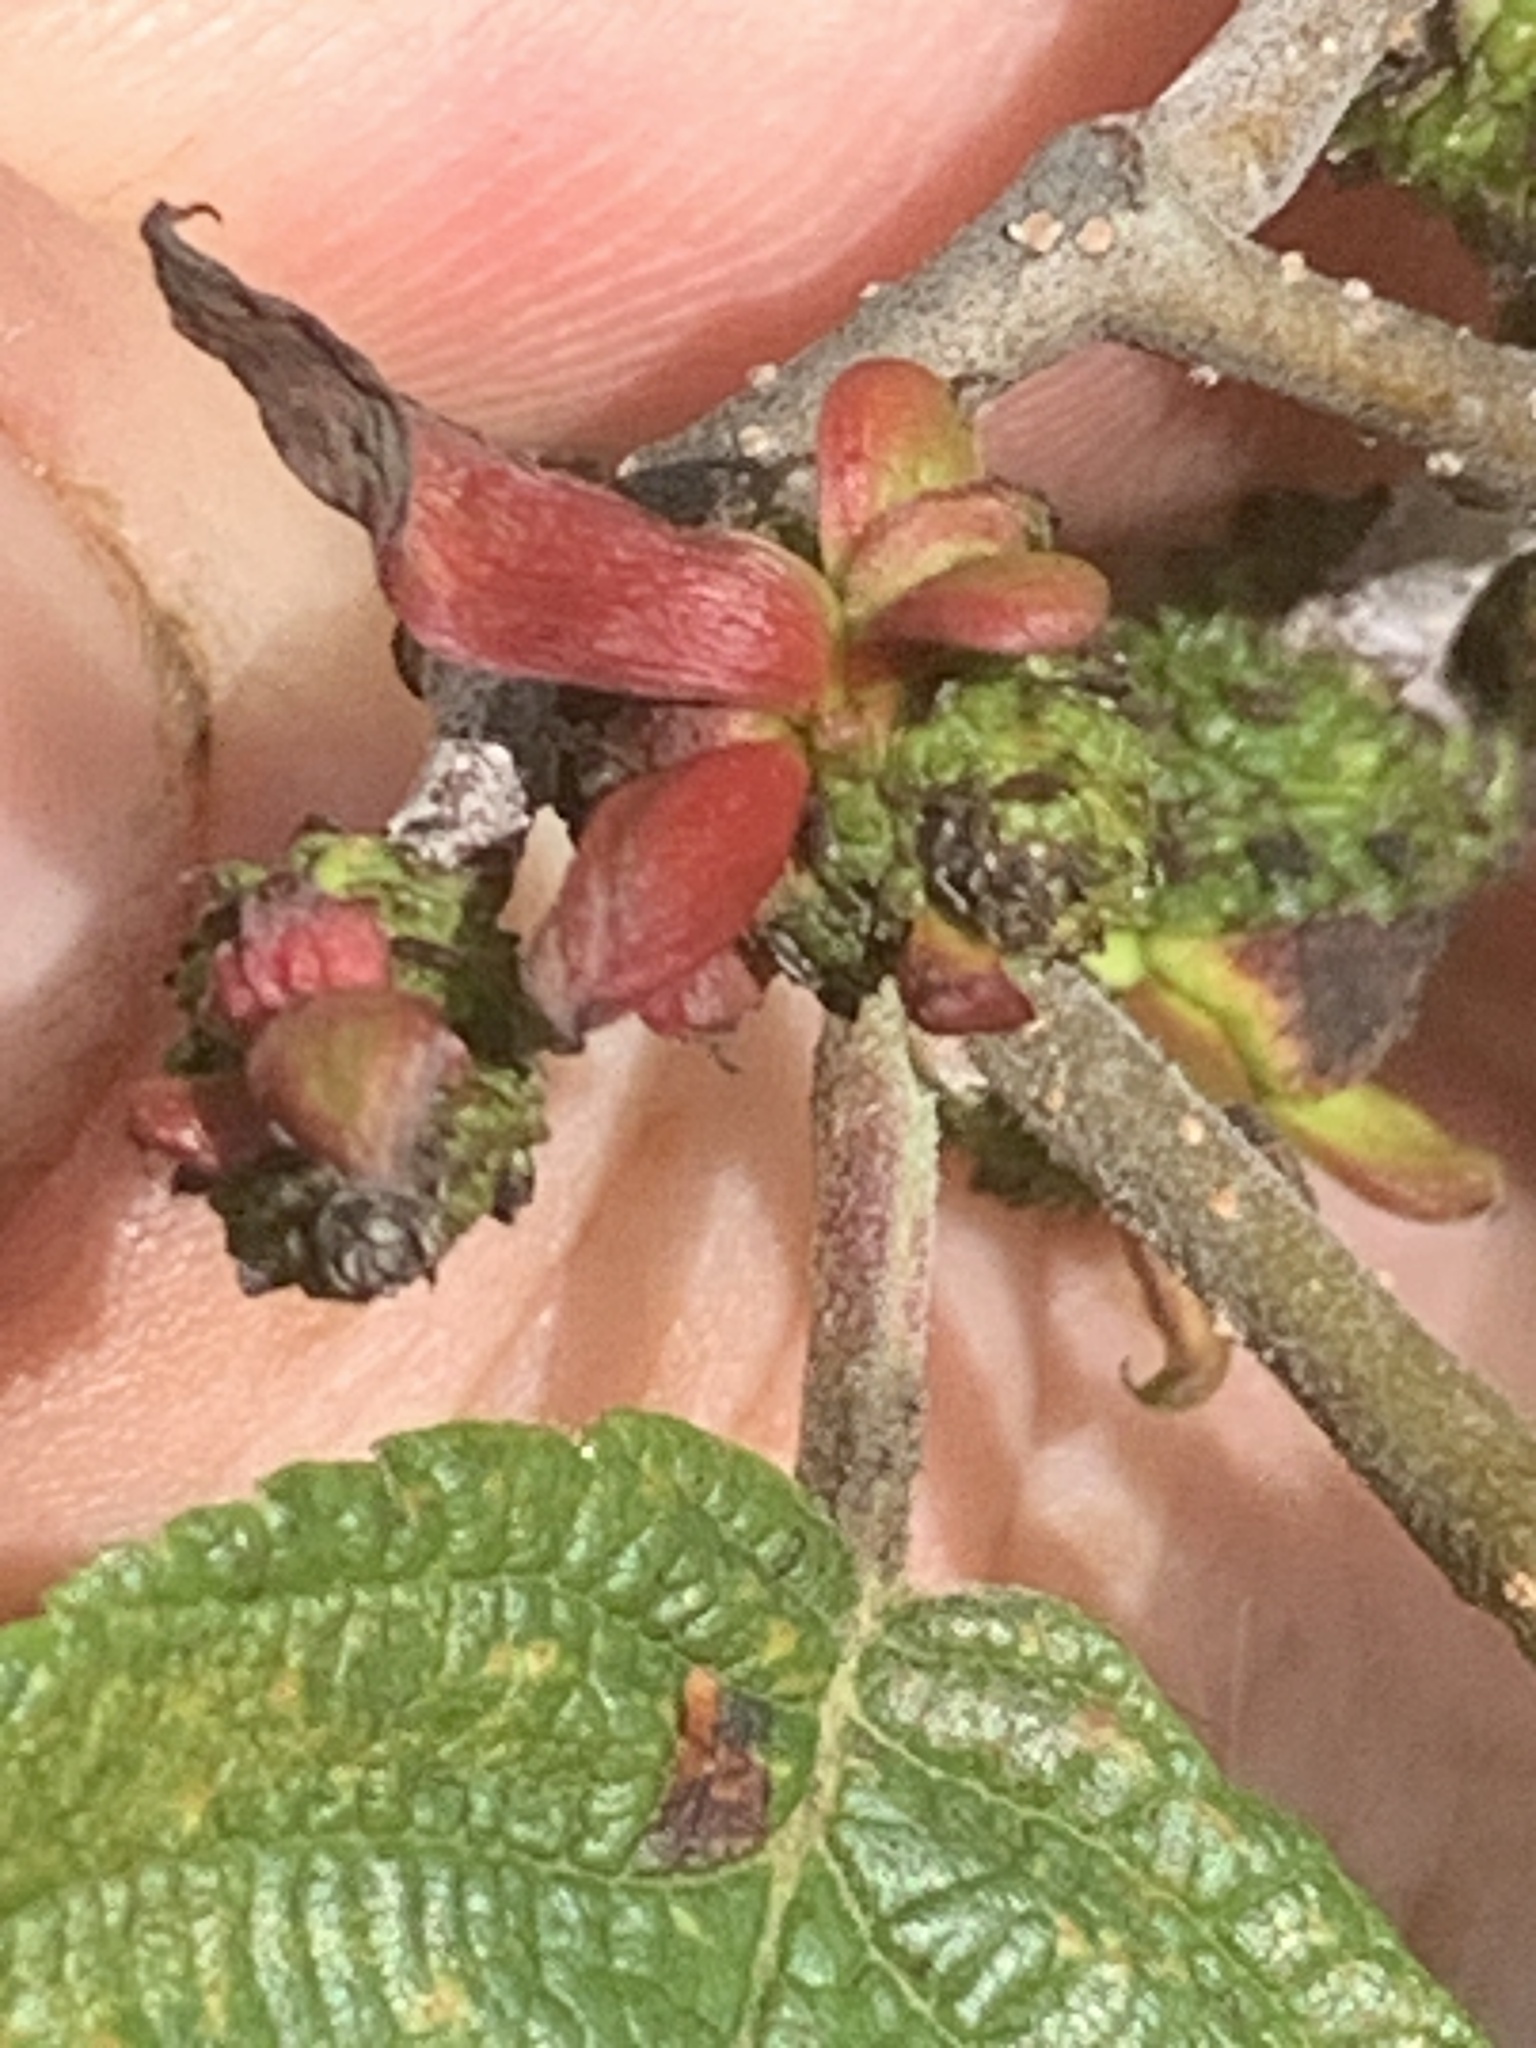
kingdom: Fungi
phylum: Ascomycota
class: Taphrinomycetes
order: Taphrinales
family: Taphrinaceae
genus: Taphrina
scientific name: Taphrina robinsoniana
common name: Eastern american alder tongue gall fungus
